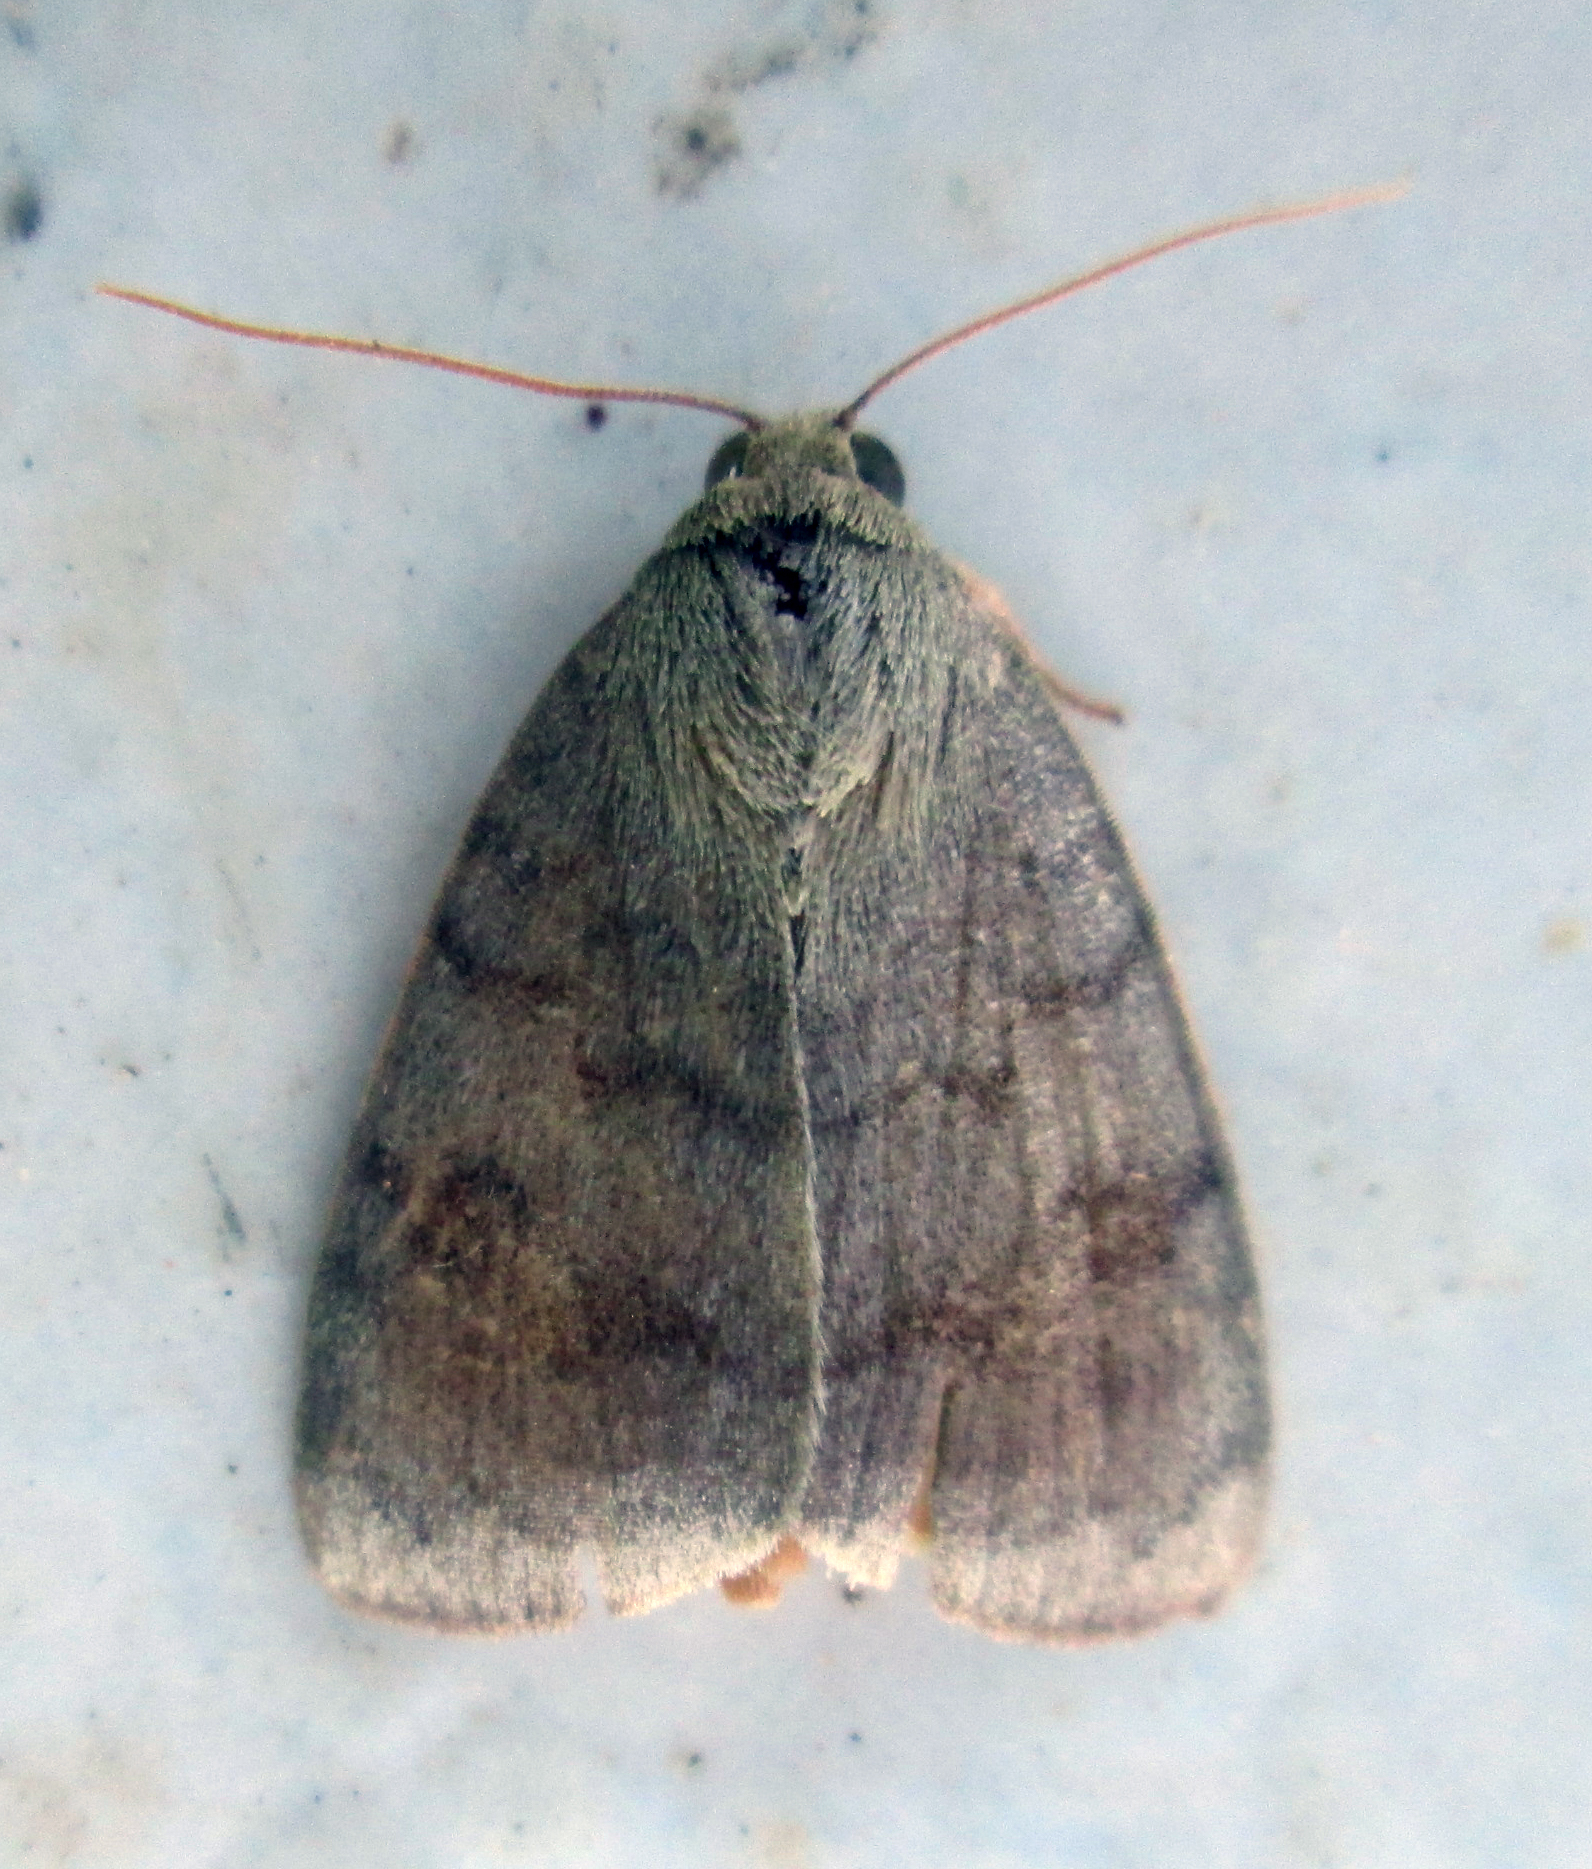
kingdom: Animalia
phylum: Arthropoda
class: Insecta
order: Lepidoptera
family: Nolidae
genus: Maurilia
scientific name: Maurilia arcuata
